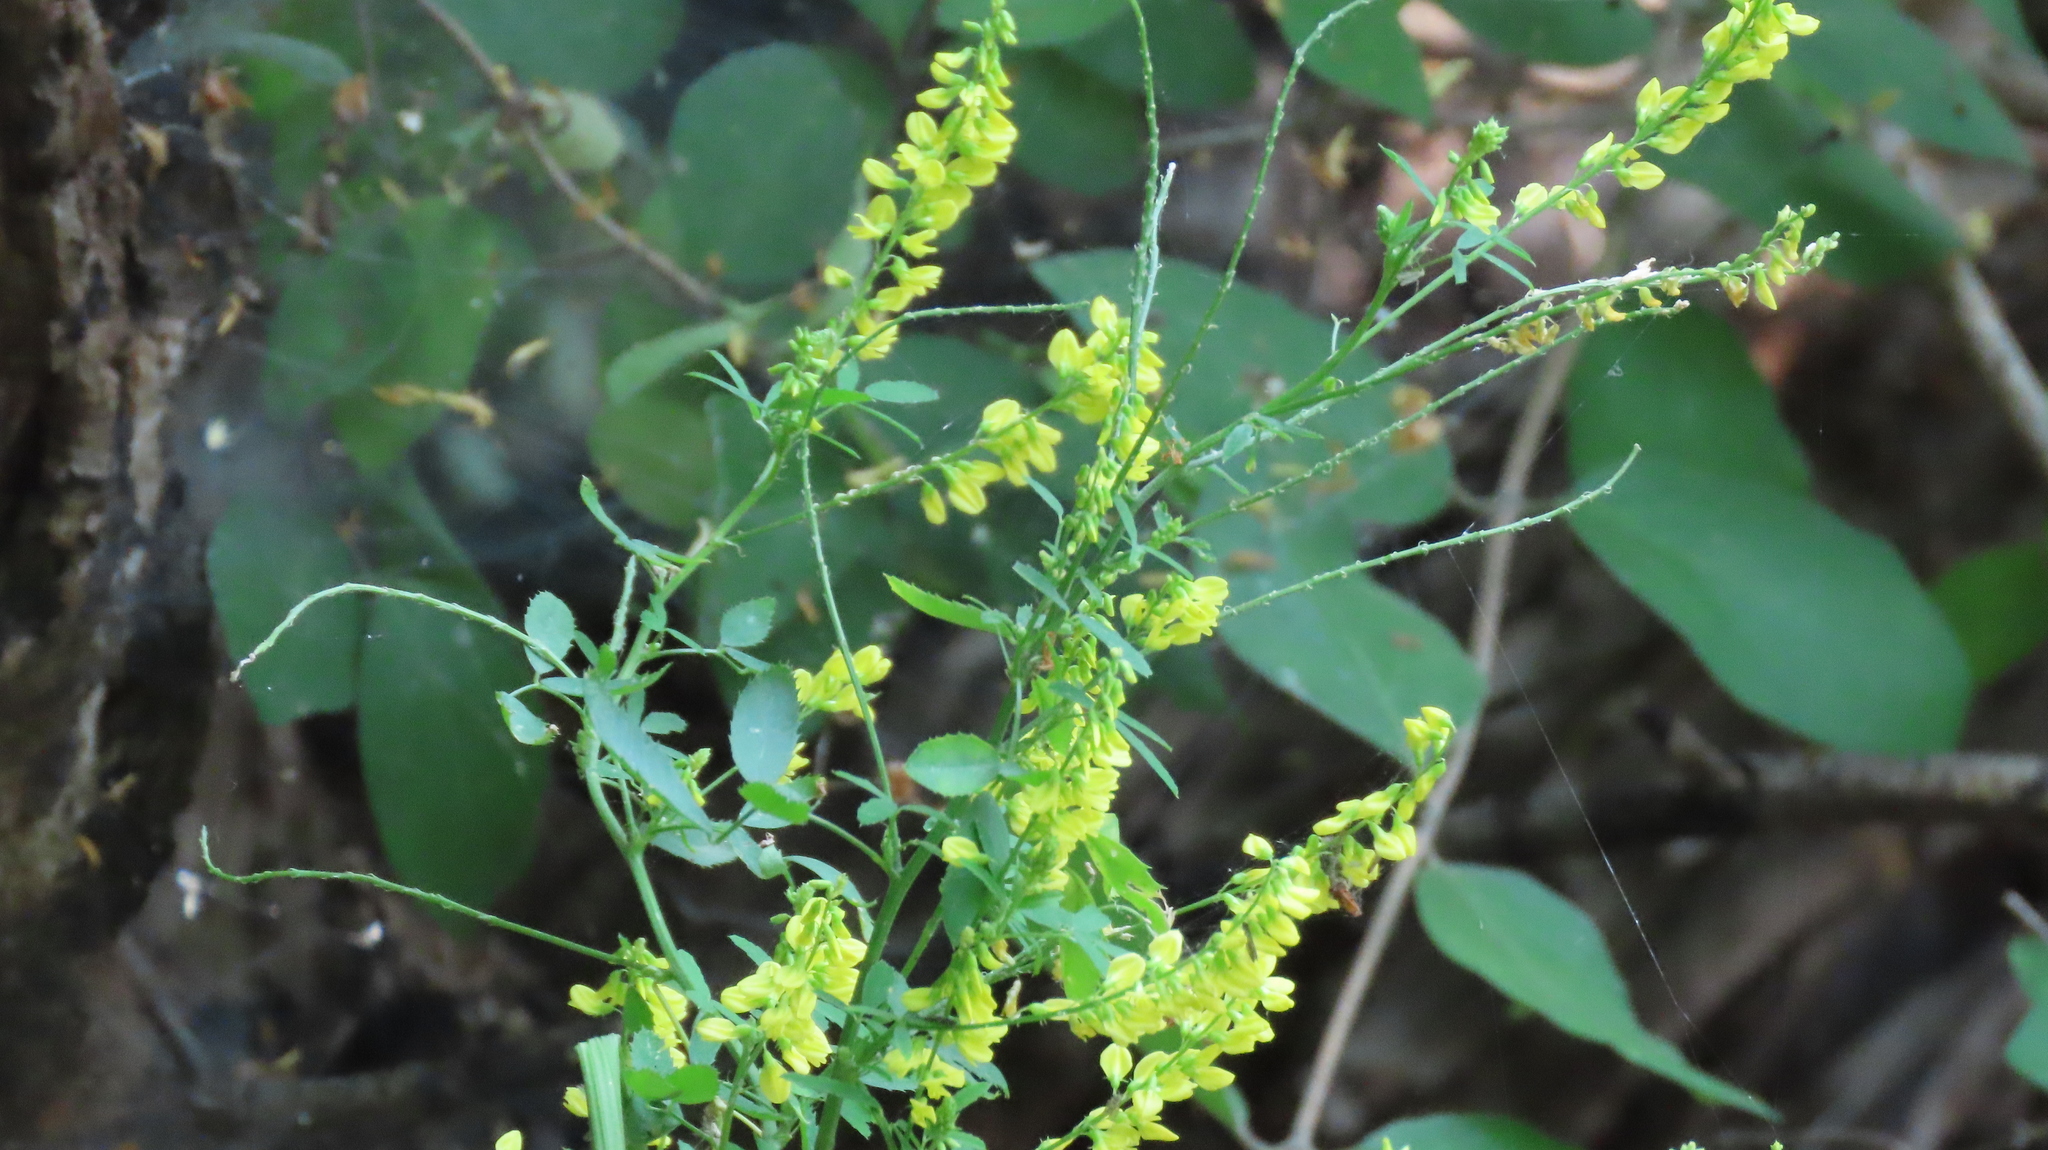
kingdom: Plantae
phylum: Tracheophyta
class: Magnoliopsida
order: Fabales
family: Fabaceae
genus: Melilotus
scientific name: Melilotus officinalis
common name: Sweetclover
